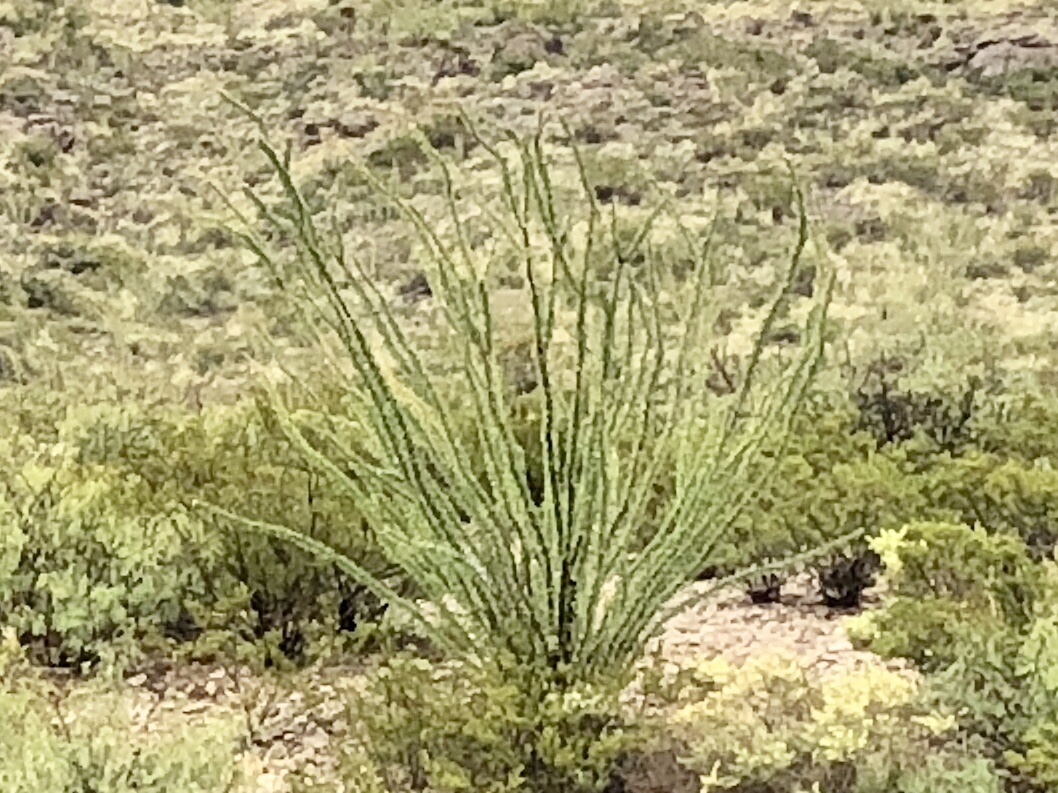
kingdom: Plantae
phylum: Tracheophyta
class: Magnoliopsida
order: Ericales
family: Fouquieriaceae
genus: Fouquieria
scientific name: Fouquieria splendens
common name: Vine-cactus
